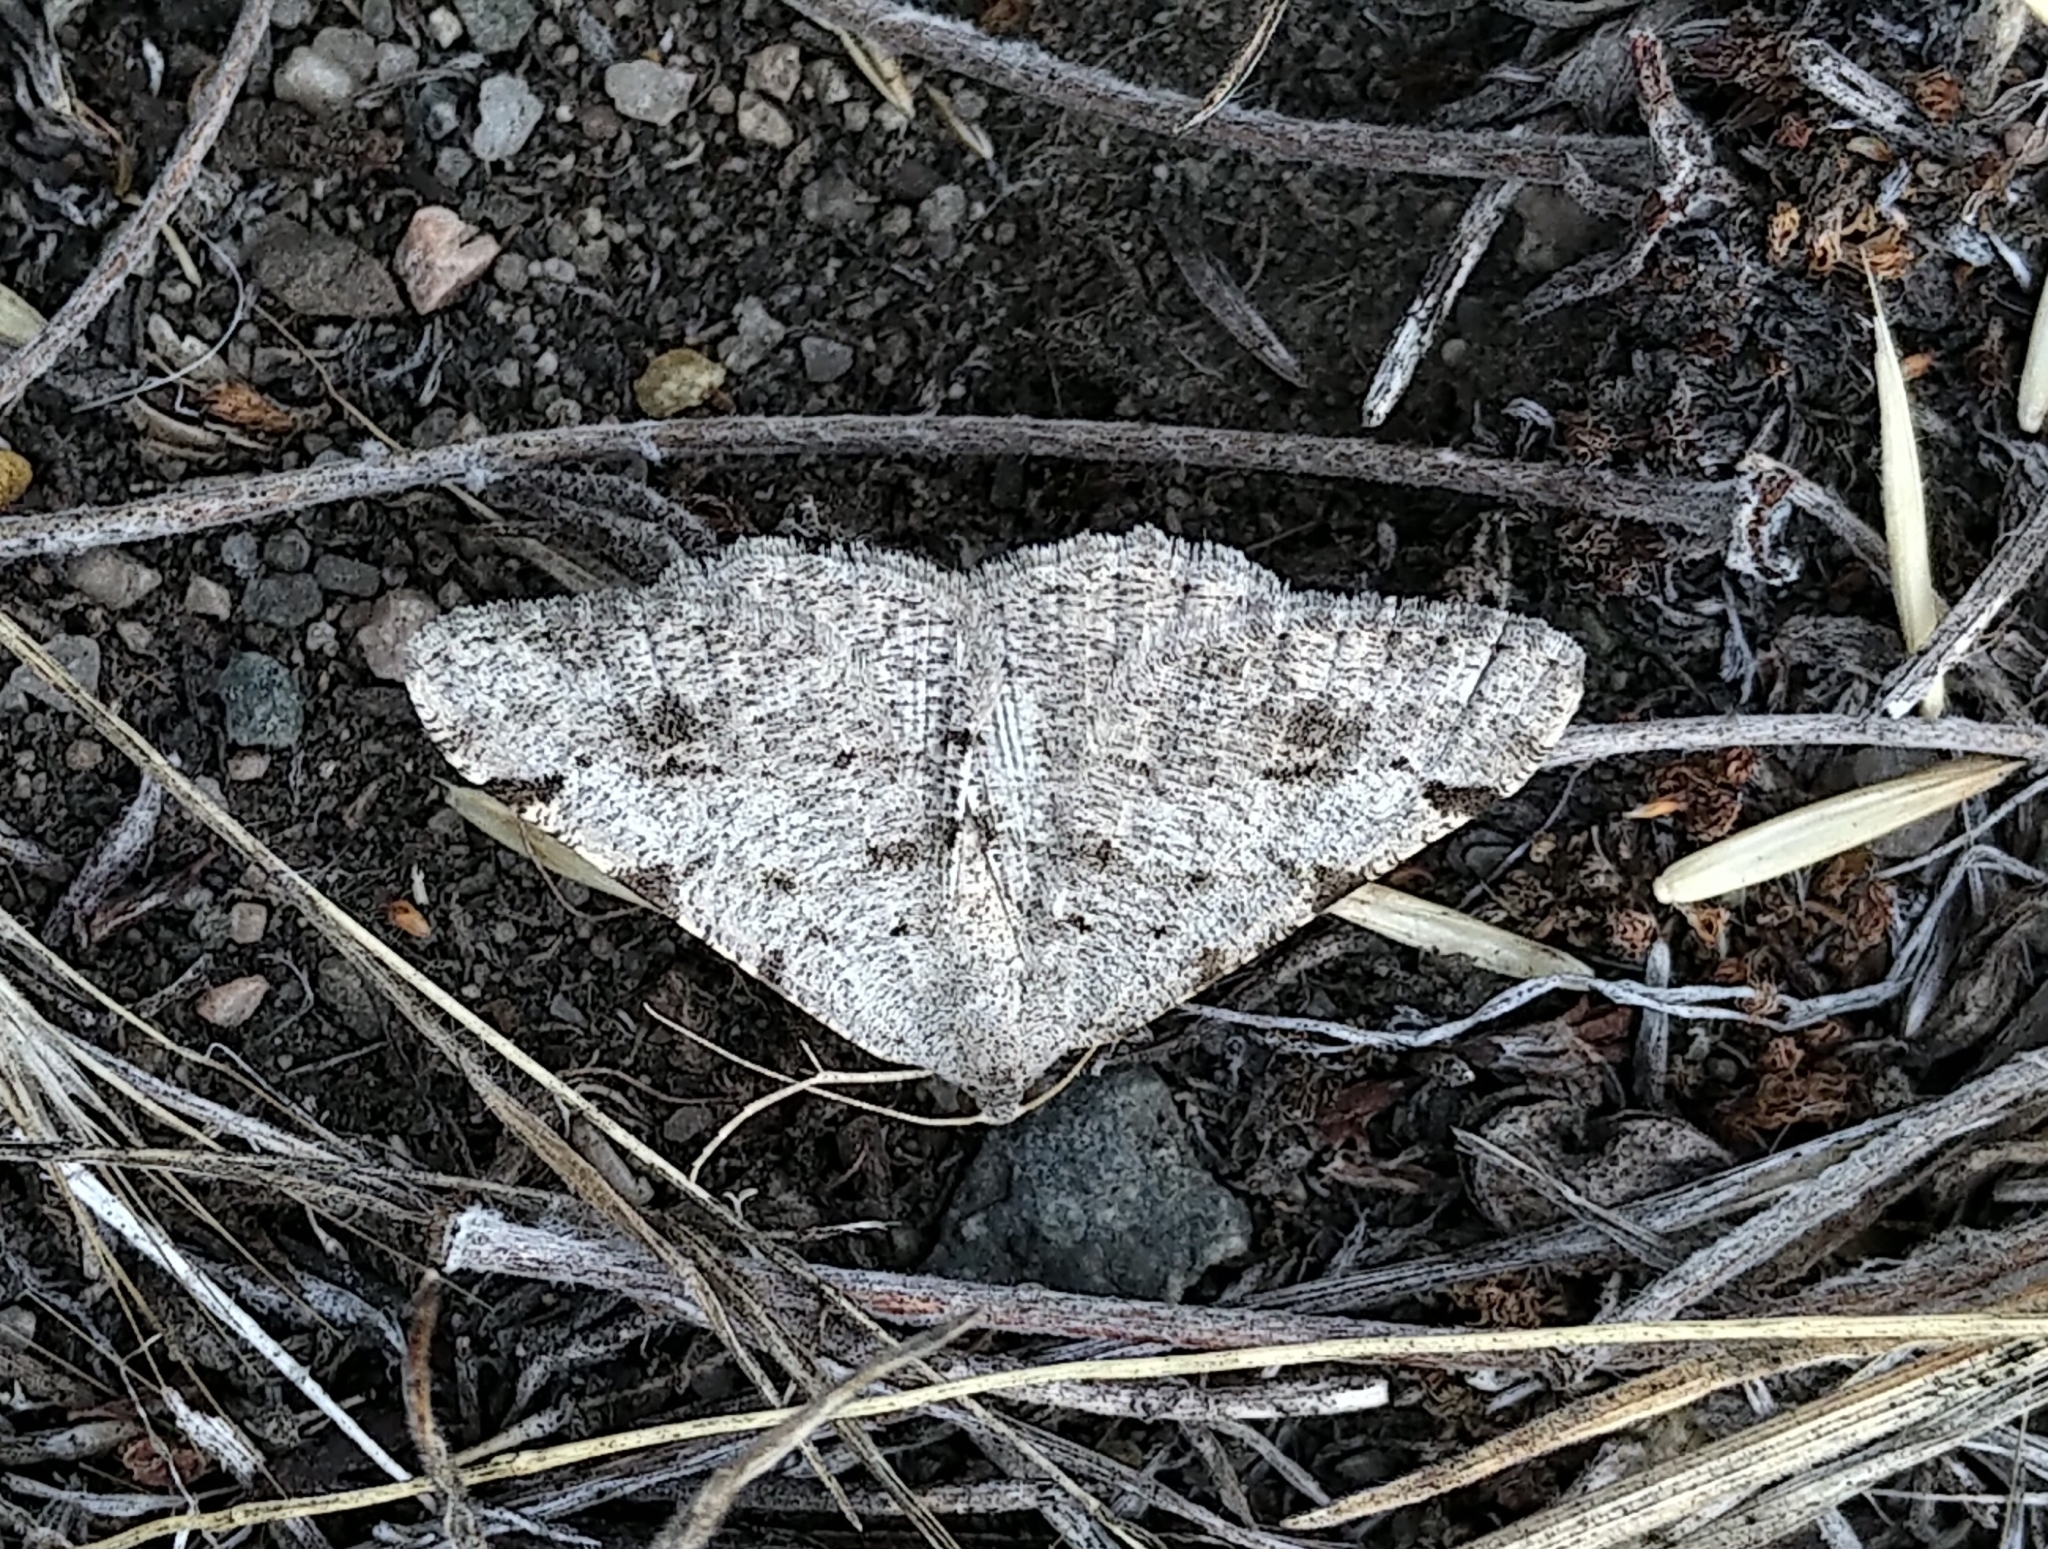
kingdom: Animalia
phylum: Arthropoda
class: Insecta
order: Lepidoptera
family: Geometridae
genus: Digrammia
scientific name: Digrammia denticulata
